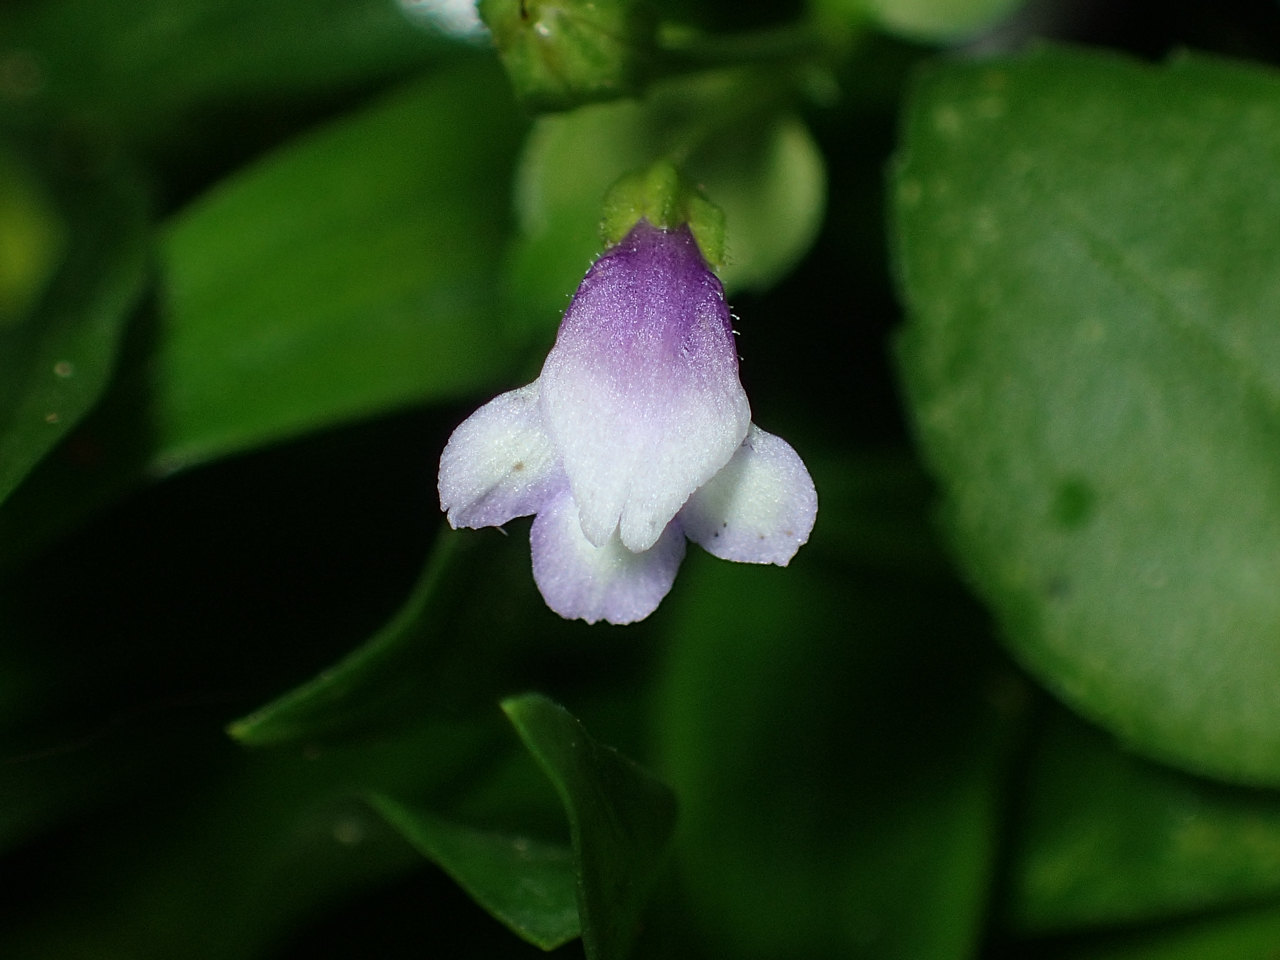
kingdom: Plantae
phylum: Tracheophyta
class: Magnoliopsida
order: Lamiales
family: Linderniaceae
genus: Torenia
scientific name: Torenia crustacea
